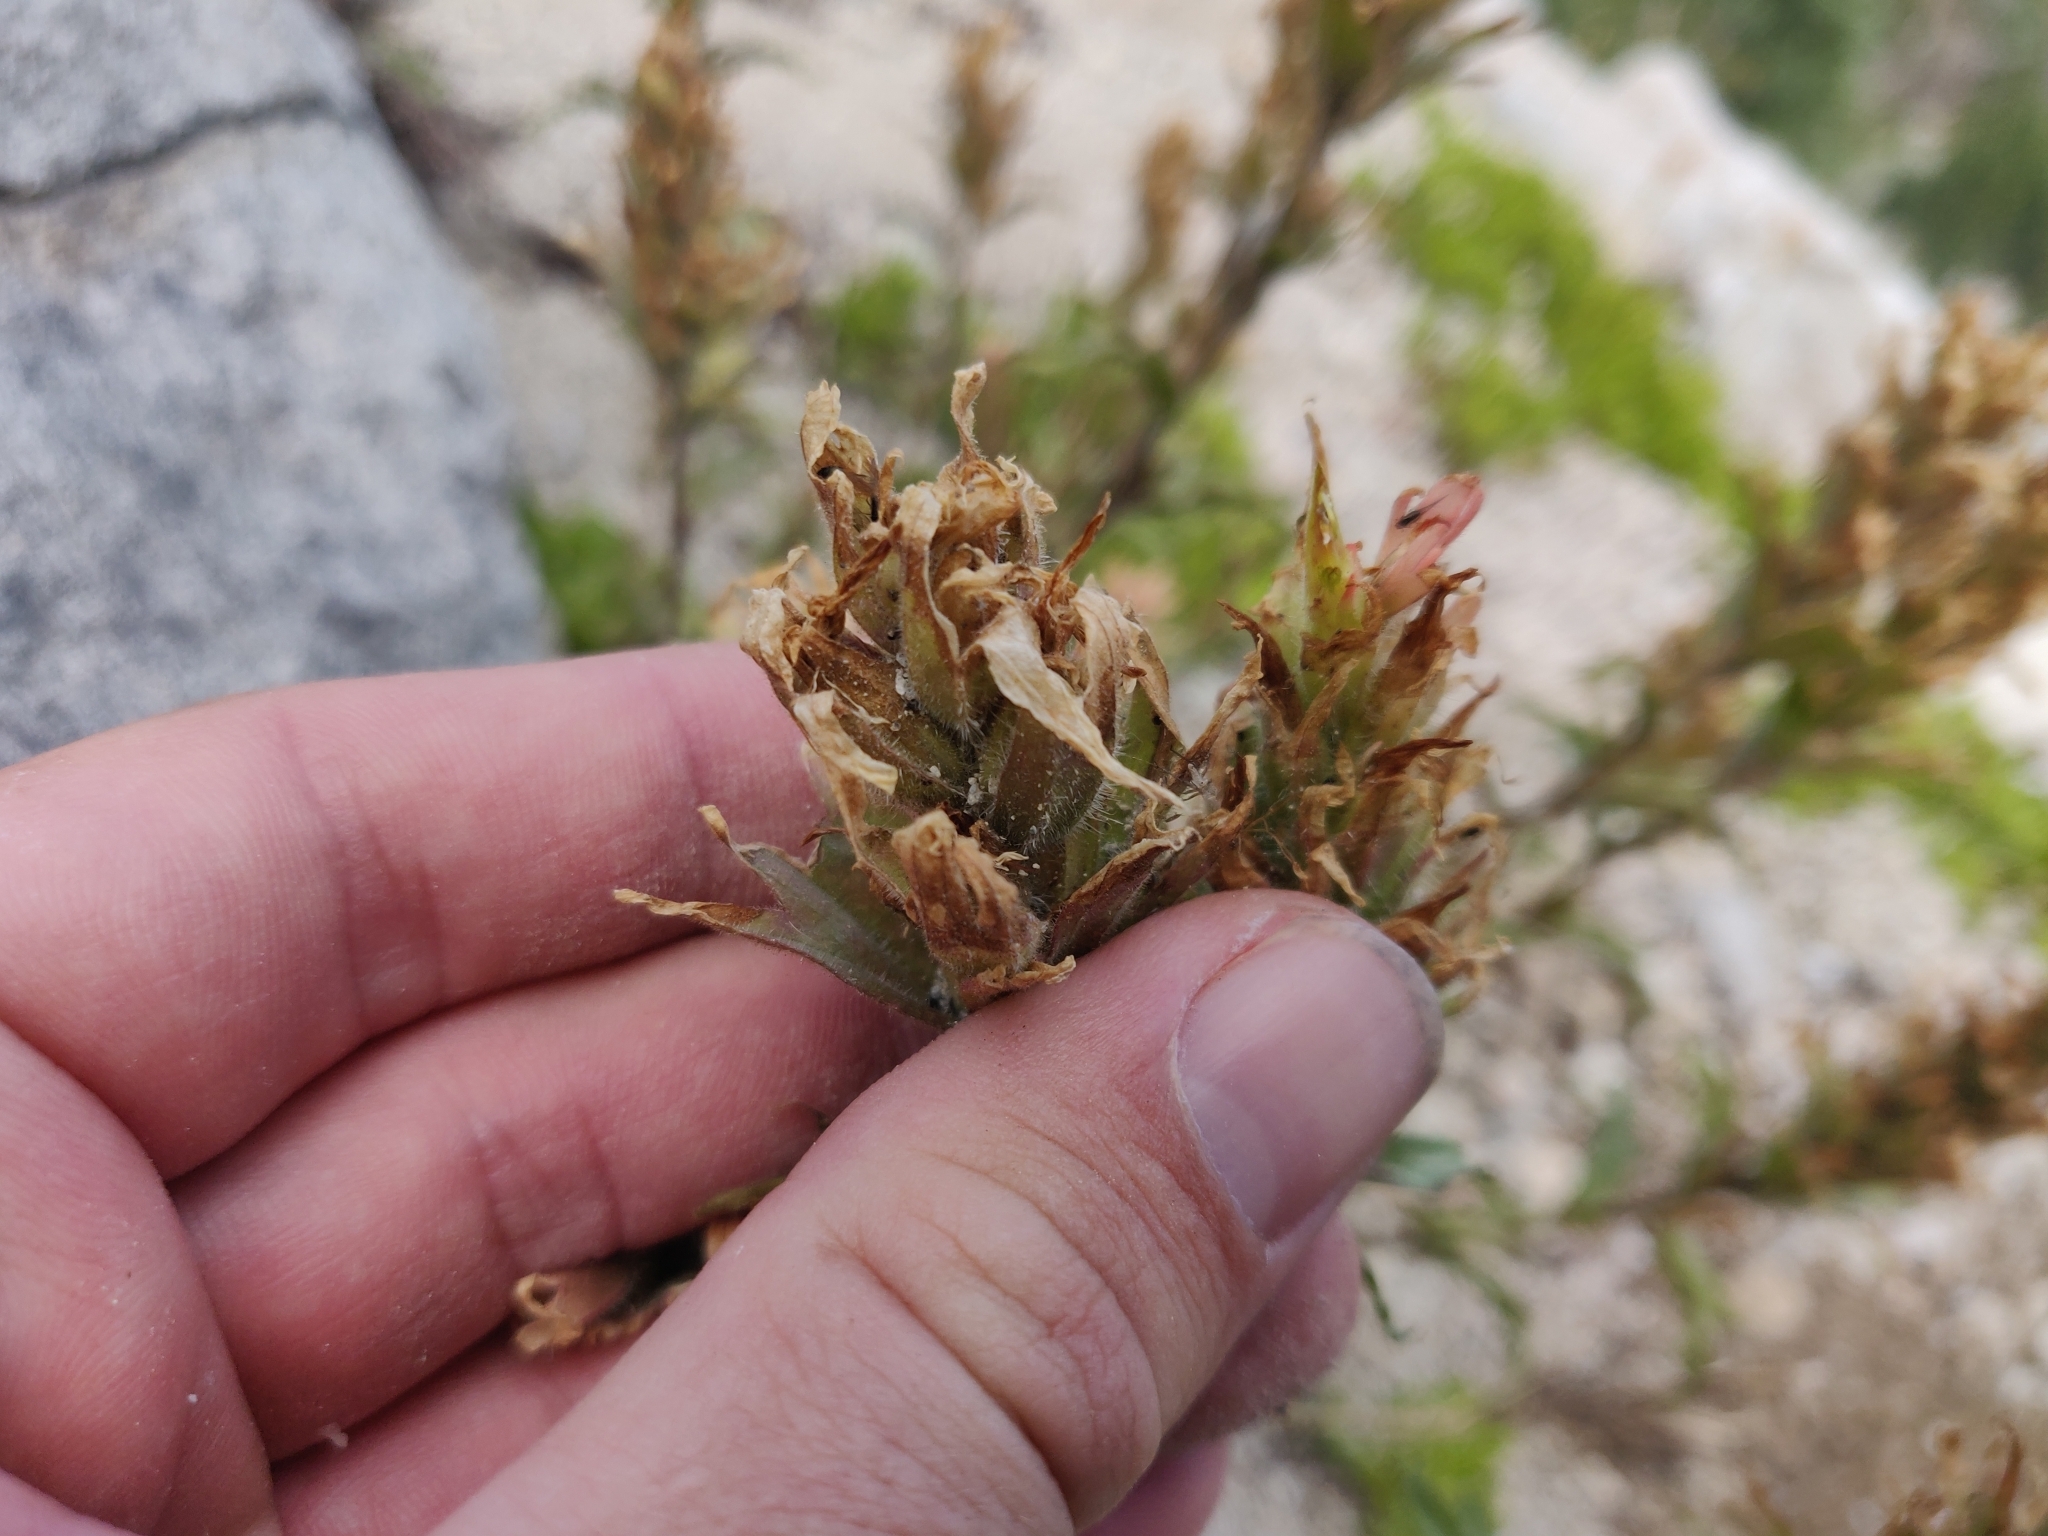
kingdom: Plantae
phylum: Tracheophyta
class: Magnoliopsida
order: Lamiales
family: Orobanchaceae
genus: Castilleja
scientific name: Castilleja applegatei
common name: Wavy-leaf paintbrush
